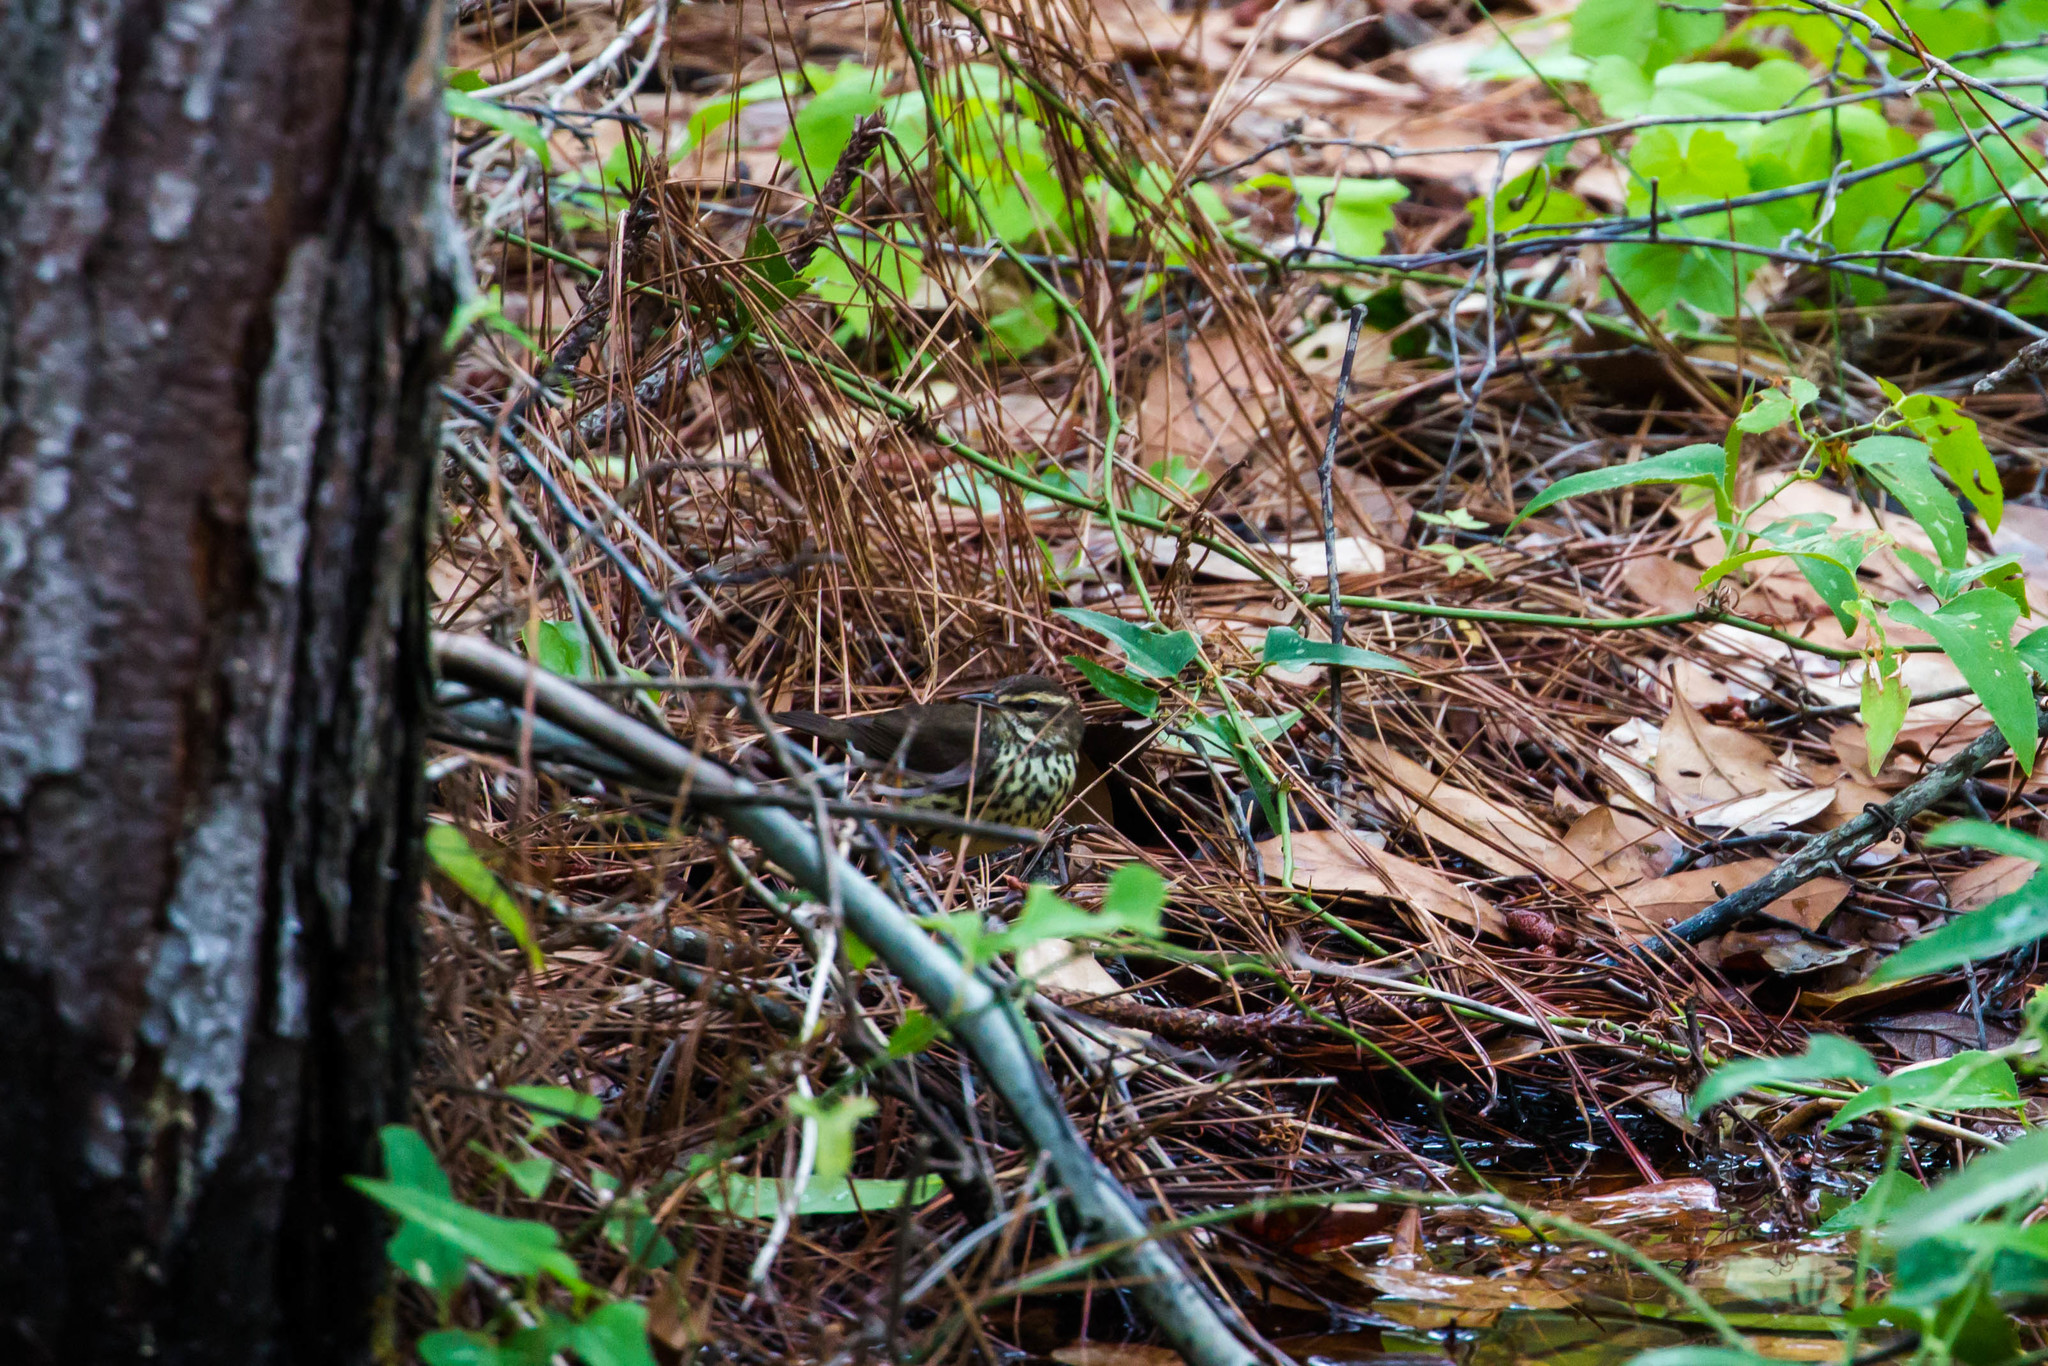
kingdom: Animalia
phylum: Chordata
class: Aves
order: Passeriformes
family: Parulidae
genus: Parkesia
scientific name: Parkesia noveboracensis
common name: Northern waterthrush
